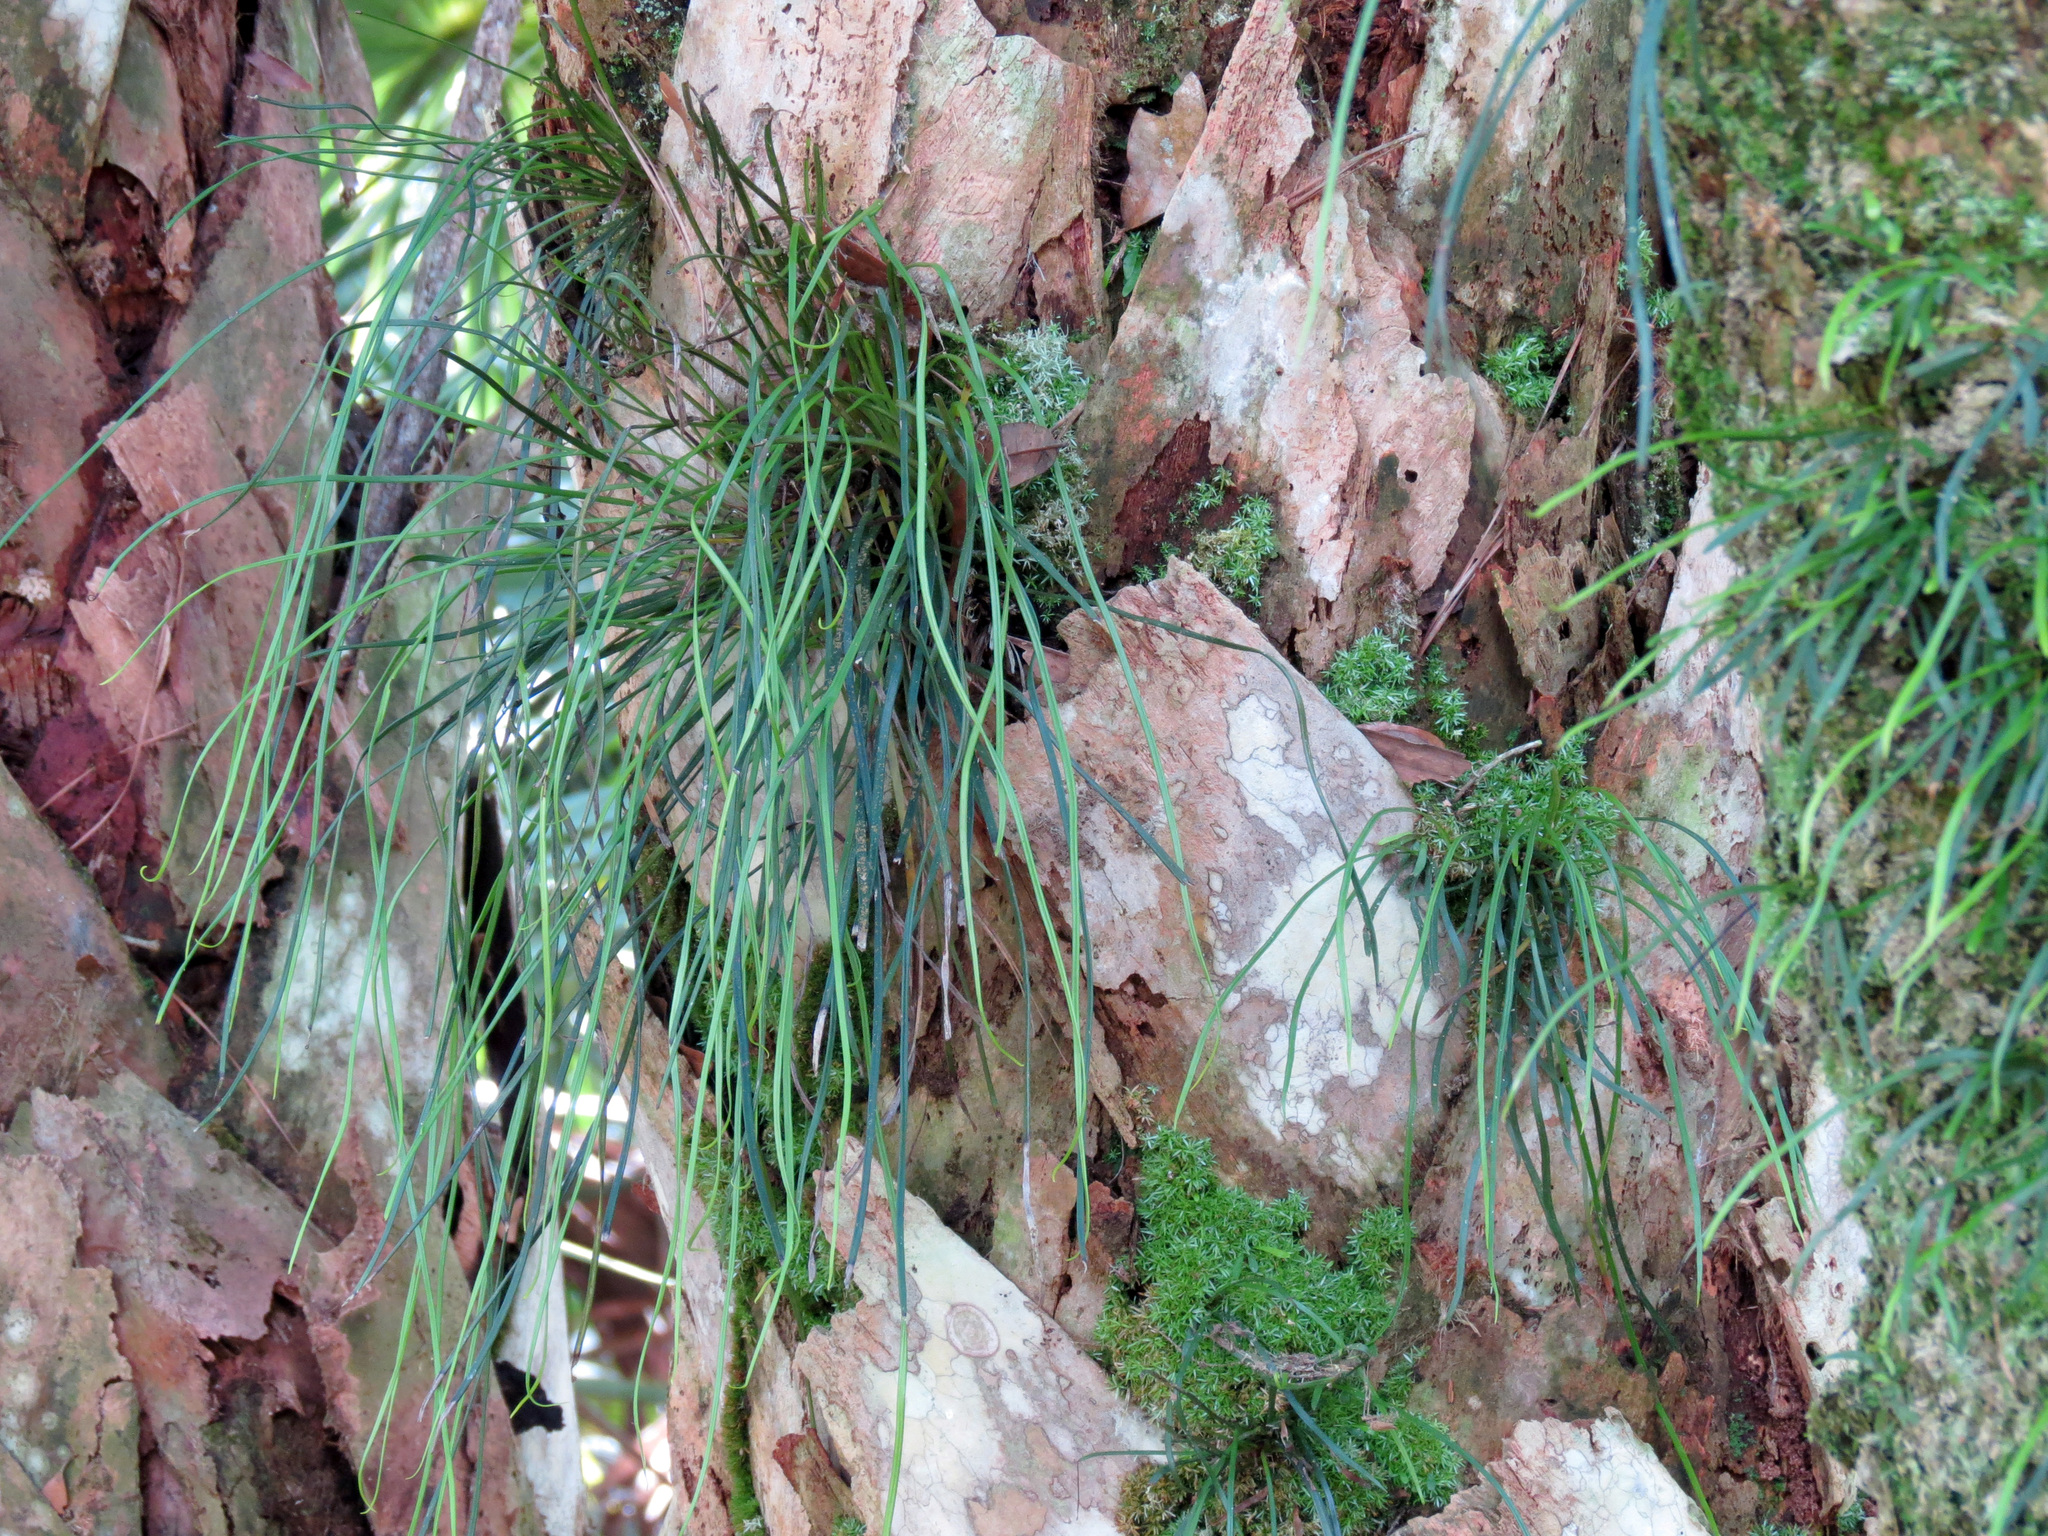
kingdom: Plantae
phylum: Tracheophyta
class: Polypodiopsida
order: Polypodiales
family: Pteridaceae
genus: Vittaria
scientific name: Vittaria lineata
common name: Shoestring fern
